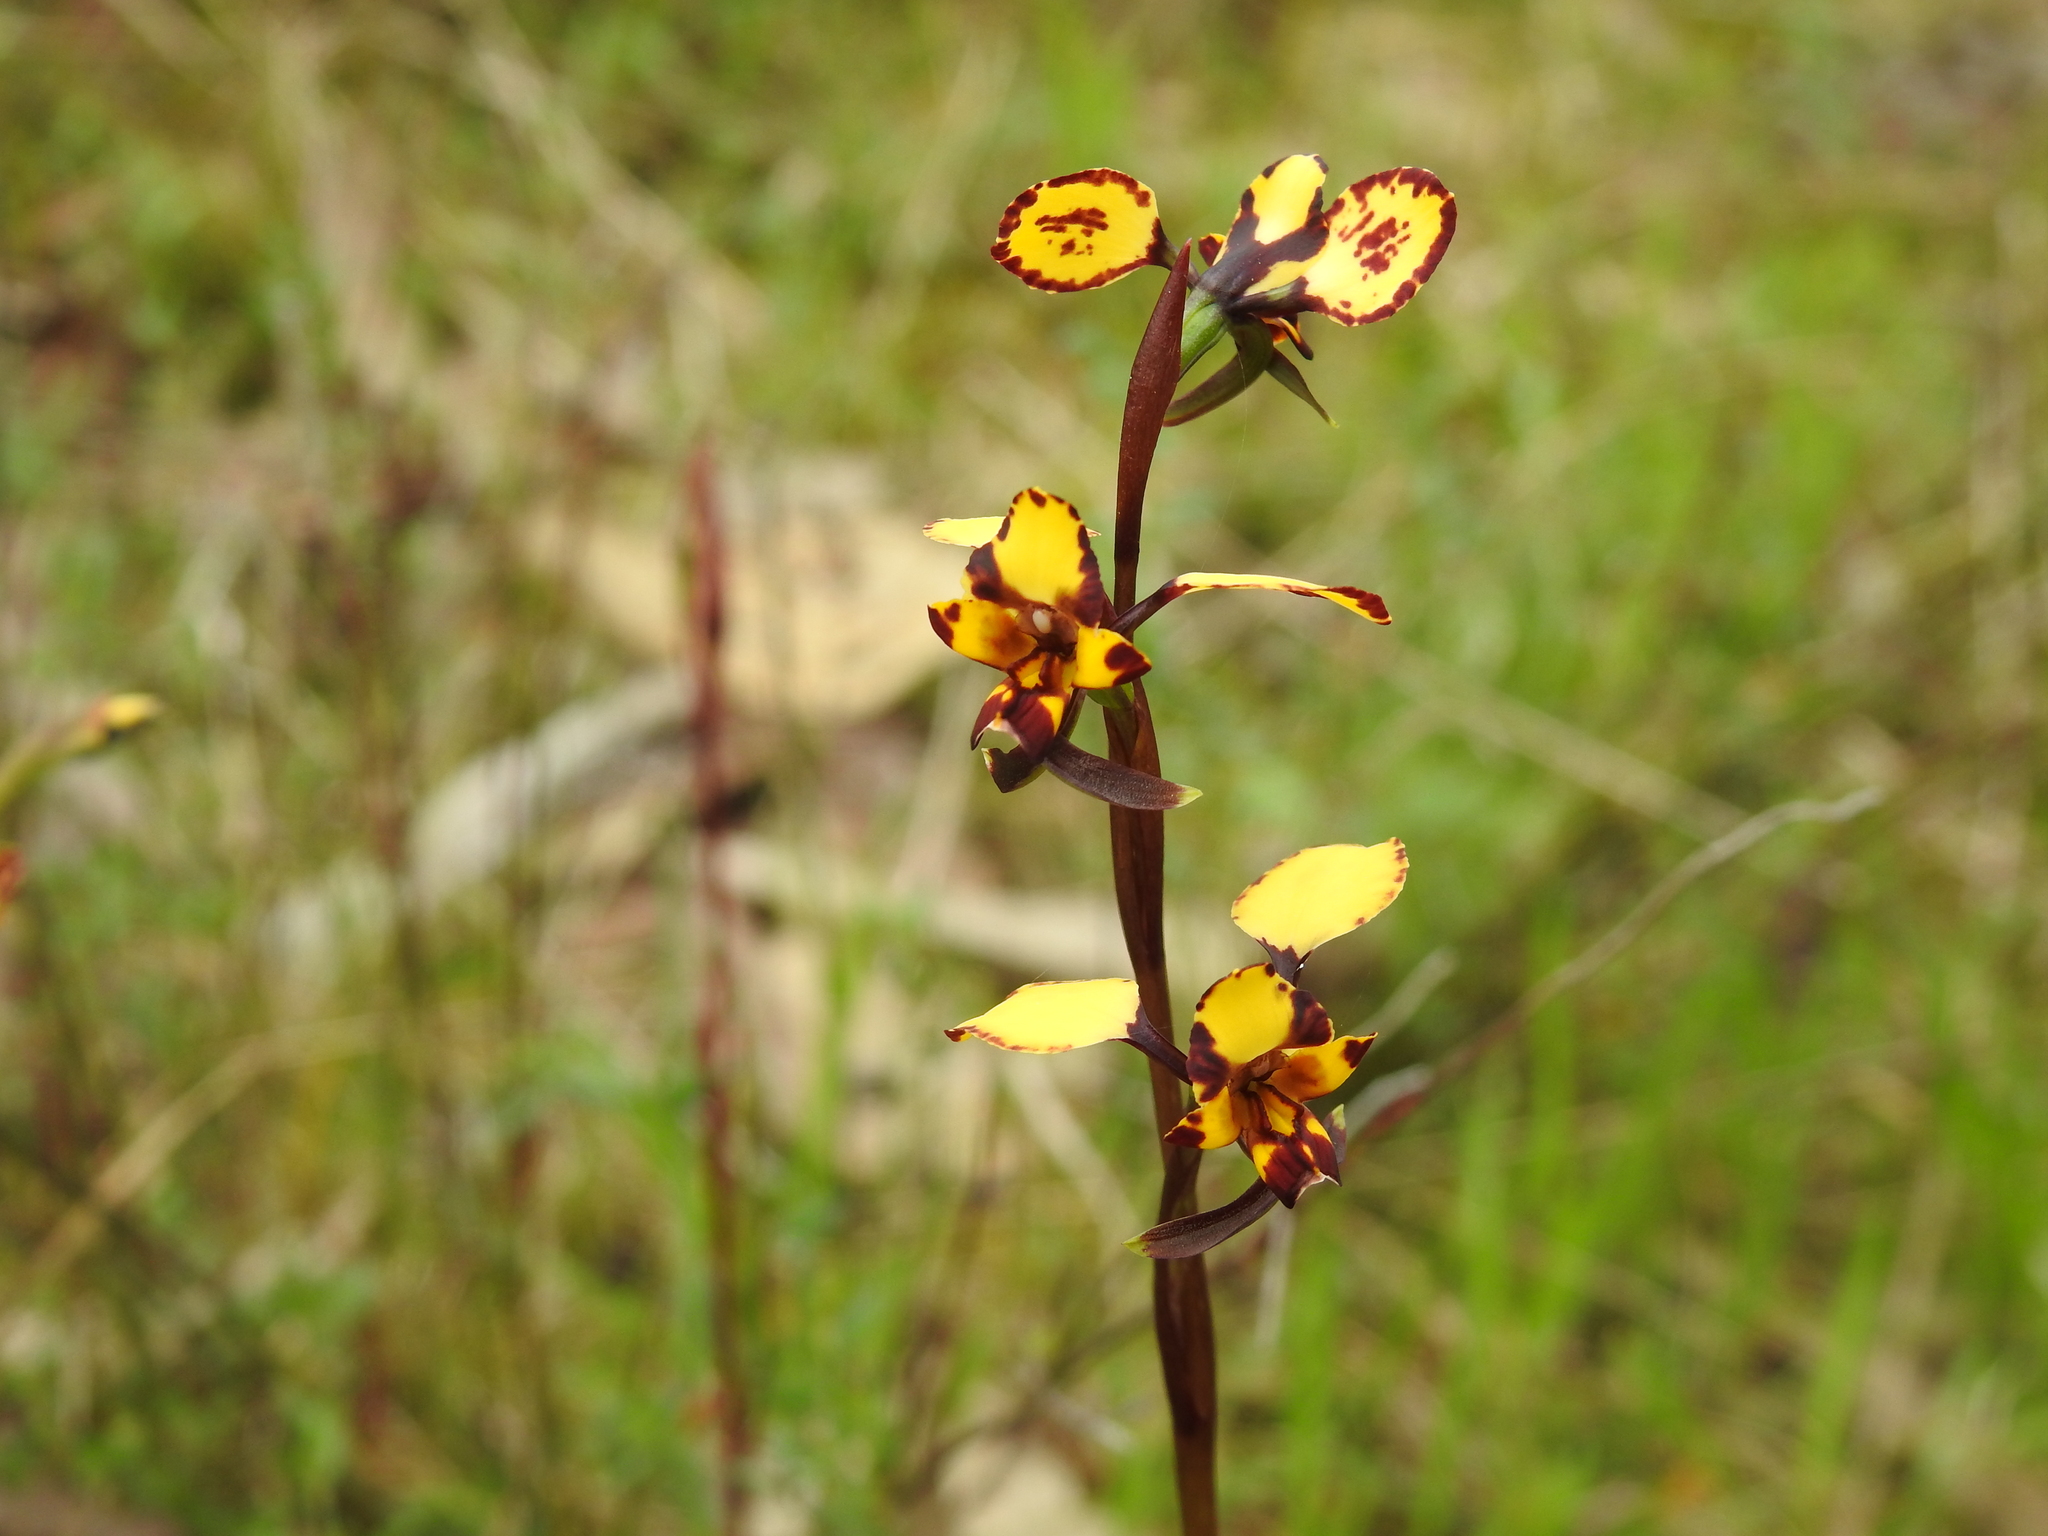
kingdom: Plantae
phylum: Tracheophyta
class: Liliopsida
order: Asparagales
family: Orchidaceae
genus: Diuris
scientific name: Diuris pardina
